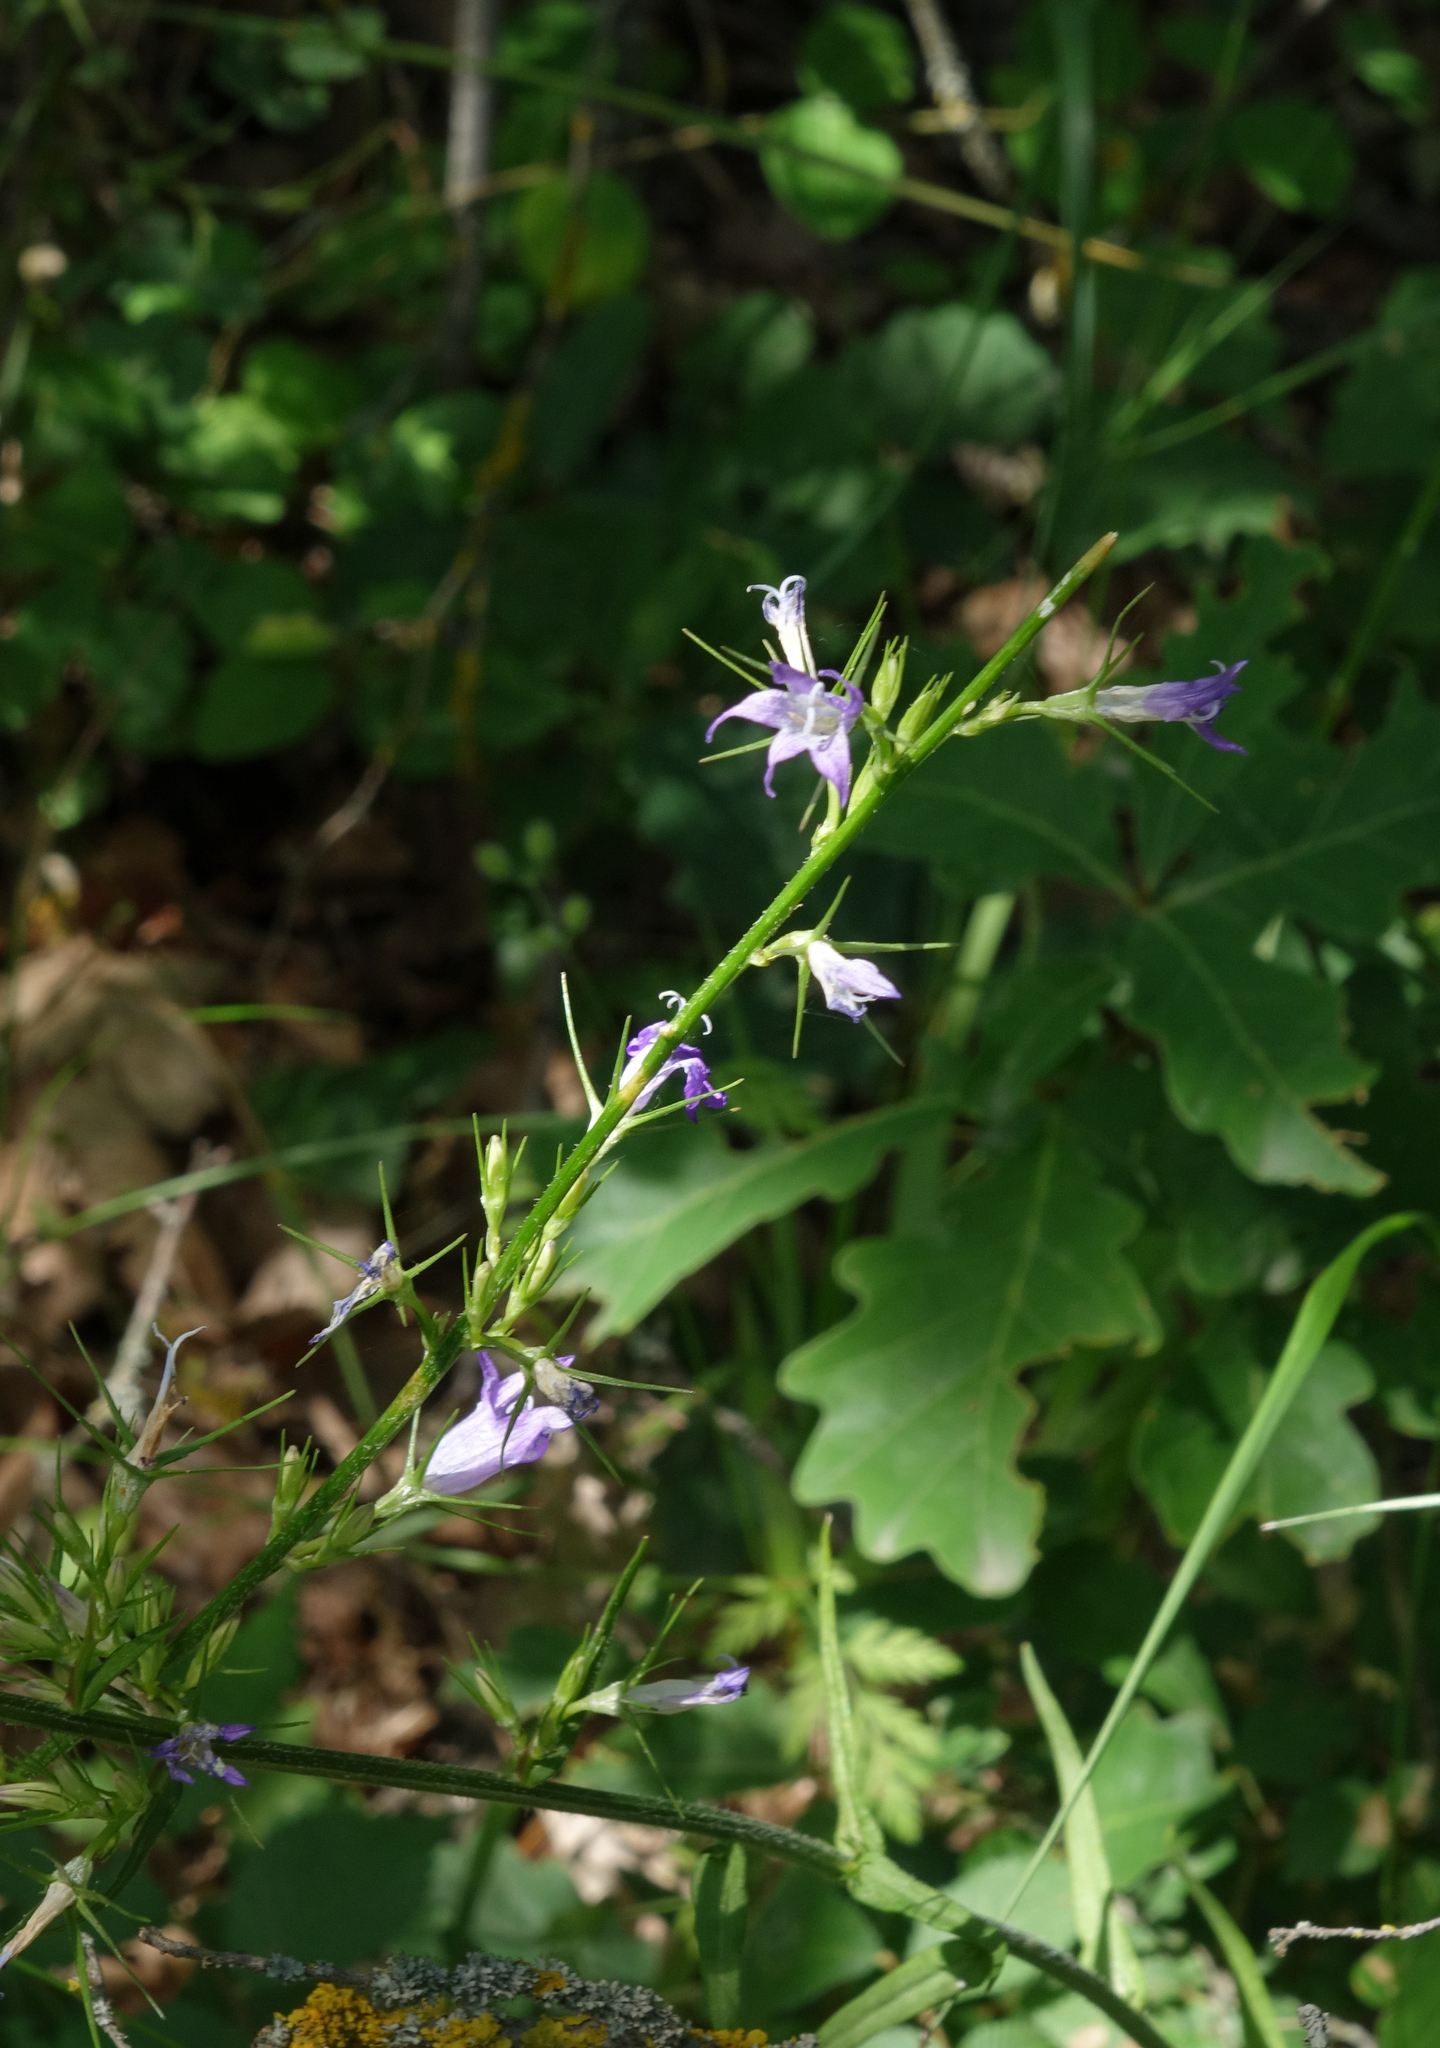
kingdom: Plantae
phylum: Tracheophyta
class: Magnoliopsida
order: Asterales
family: Campanulaceae
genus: Campanula
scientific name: Campanula rapunculus
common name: Rampion bellflower
